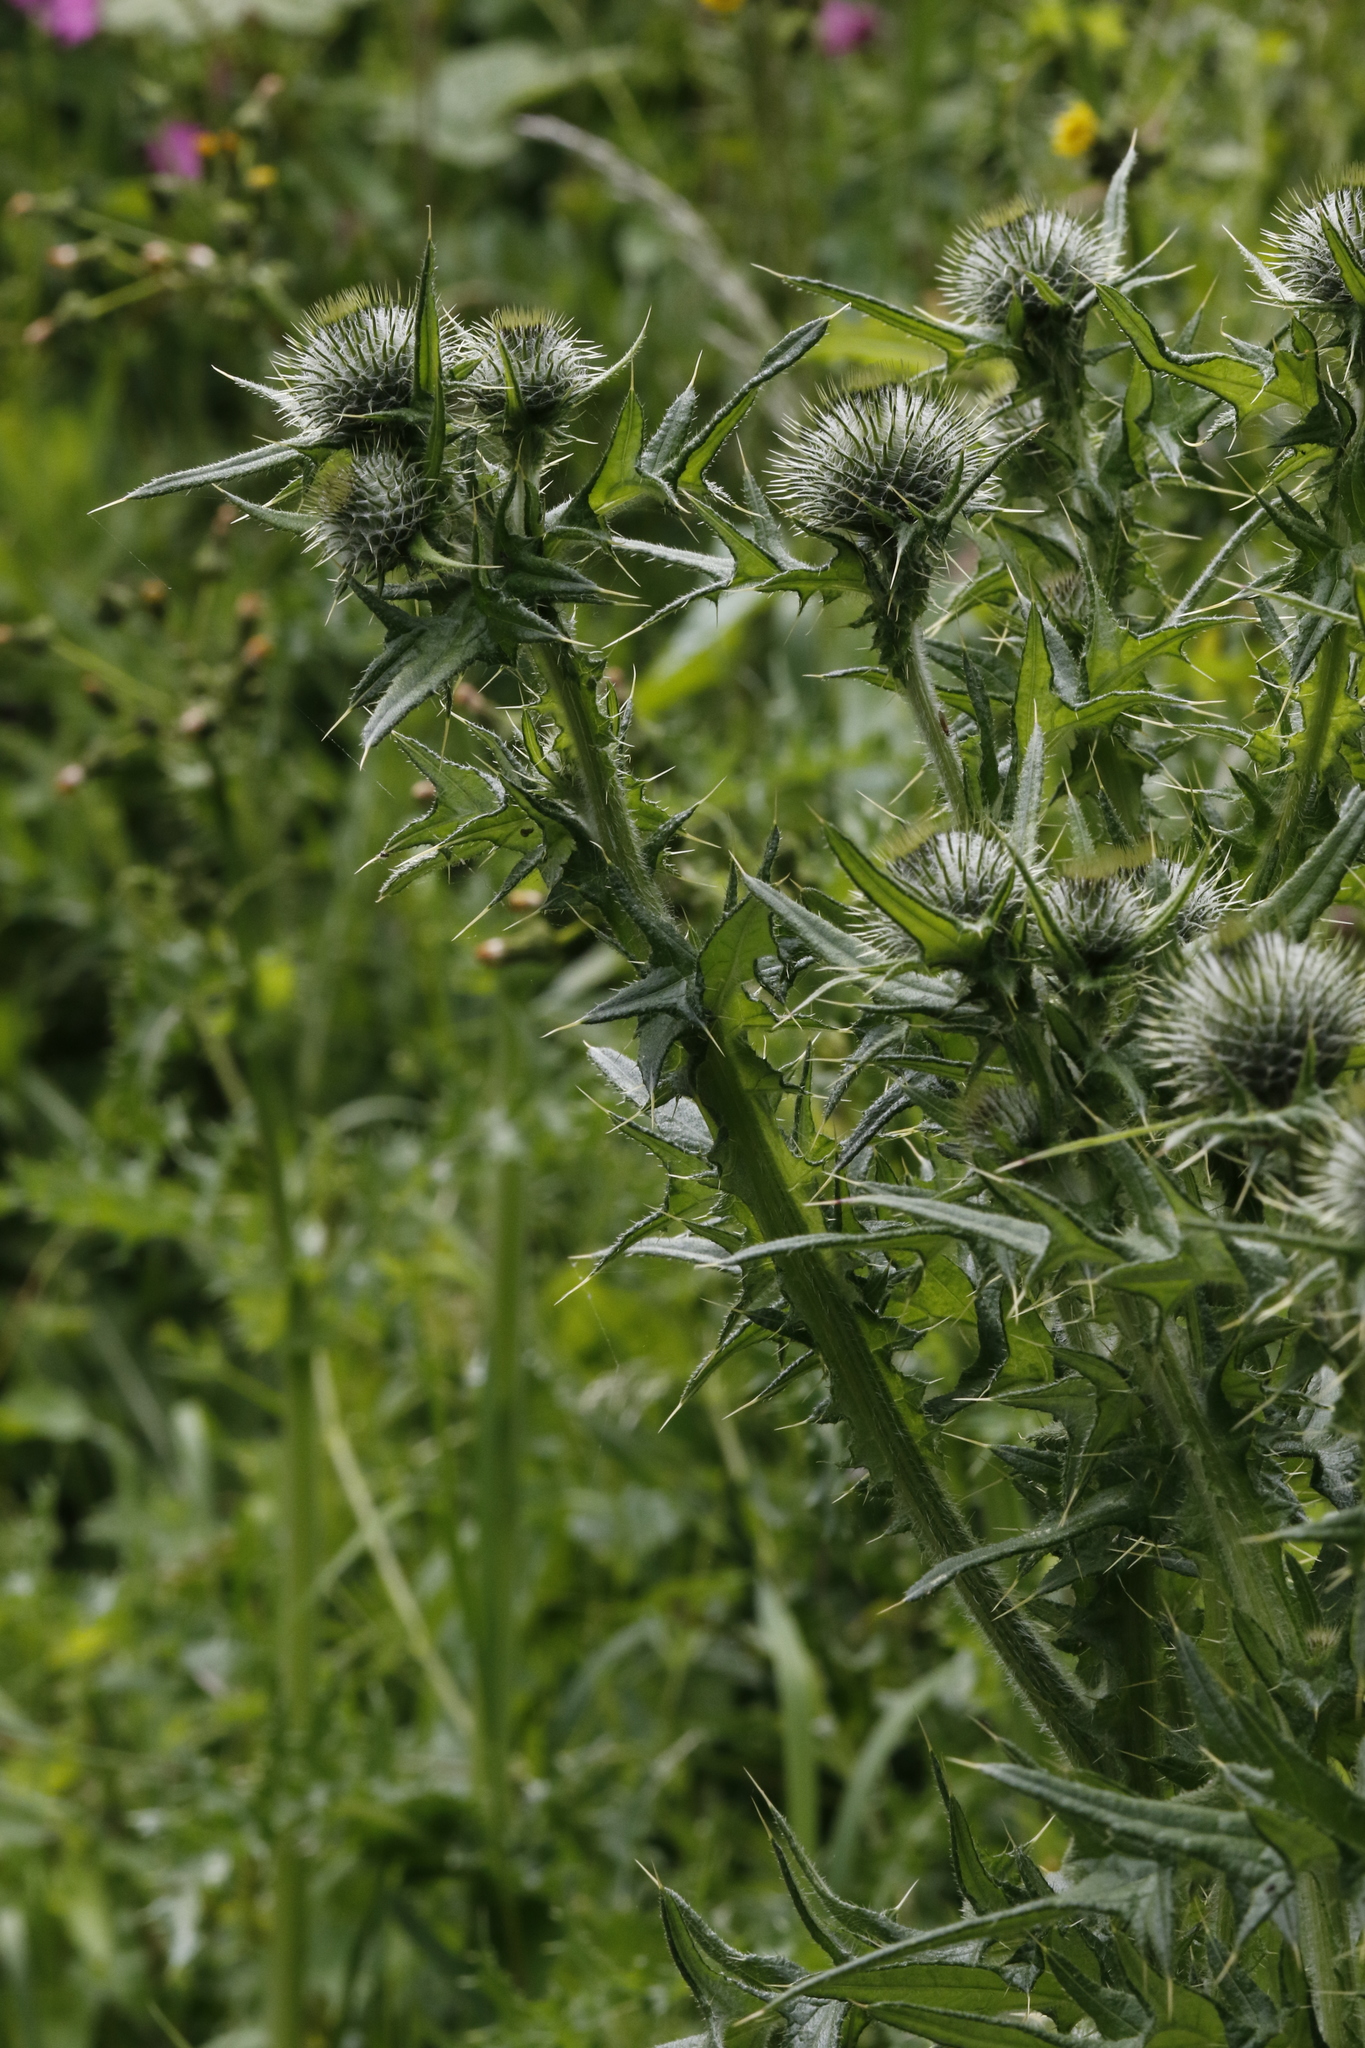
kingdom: Plantae
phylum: Tracheophyta
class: Magnoliopsida
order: Asterales
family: Asteraceae
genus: Cirsium
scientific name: Cirsium vulgare
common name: Bull thistle
